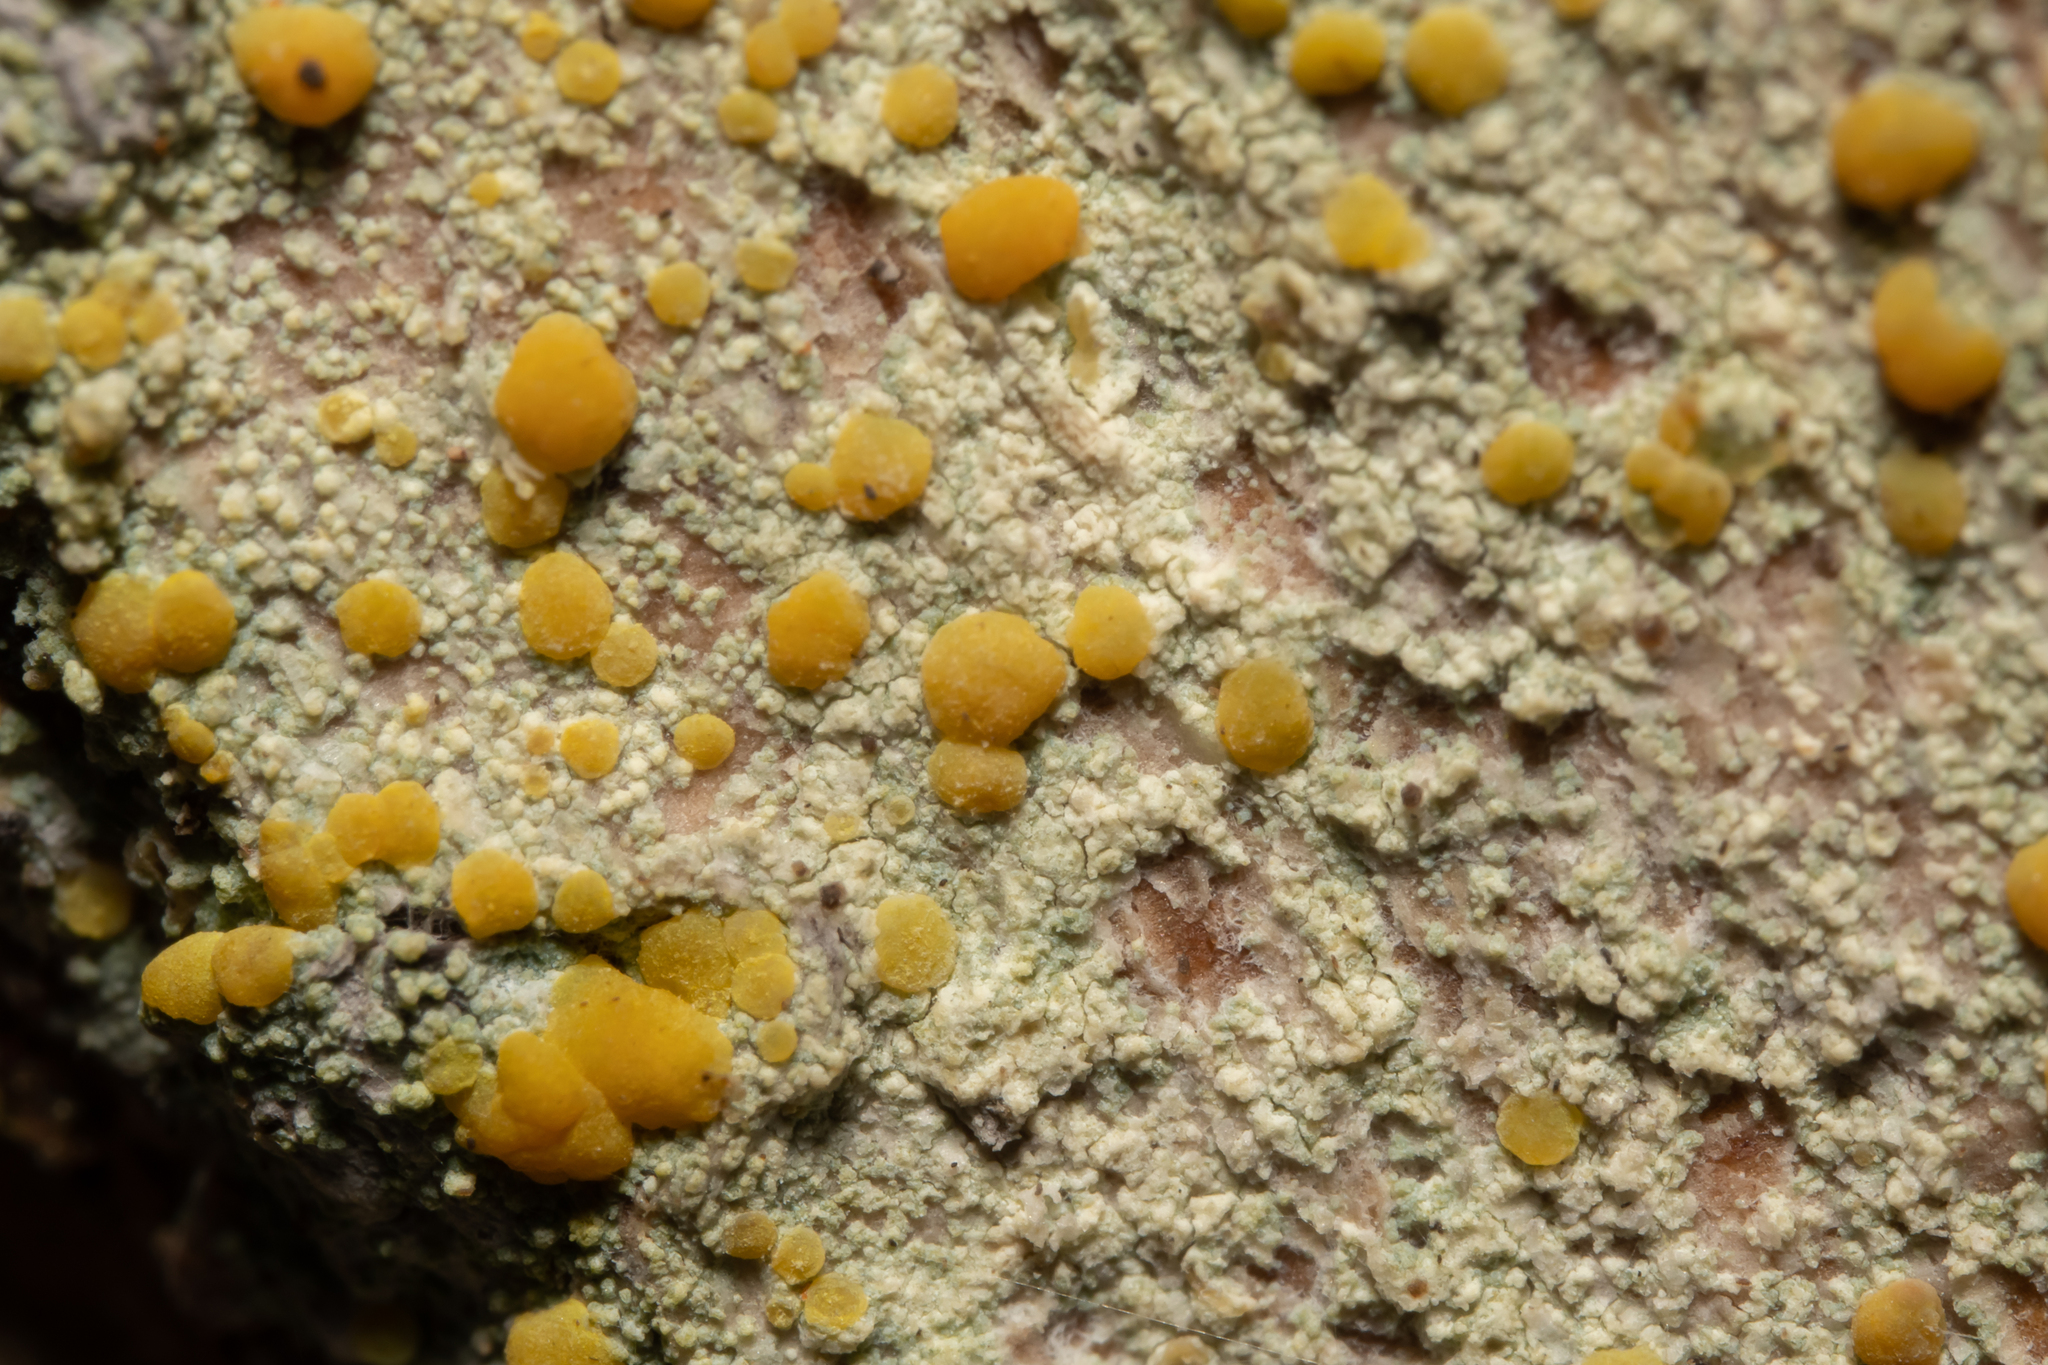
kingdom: Fungi
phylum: Ascomycota
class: Lecanoromycetes
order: Lecanorales
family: Lecanoraceae
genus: Lecanora
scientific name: Lecanora symmicta
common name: Fused rim lichen
